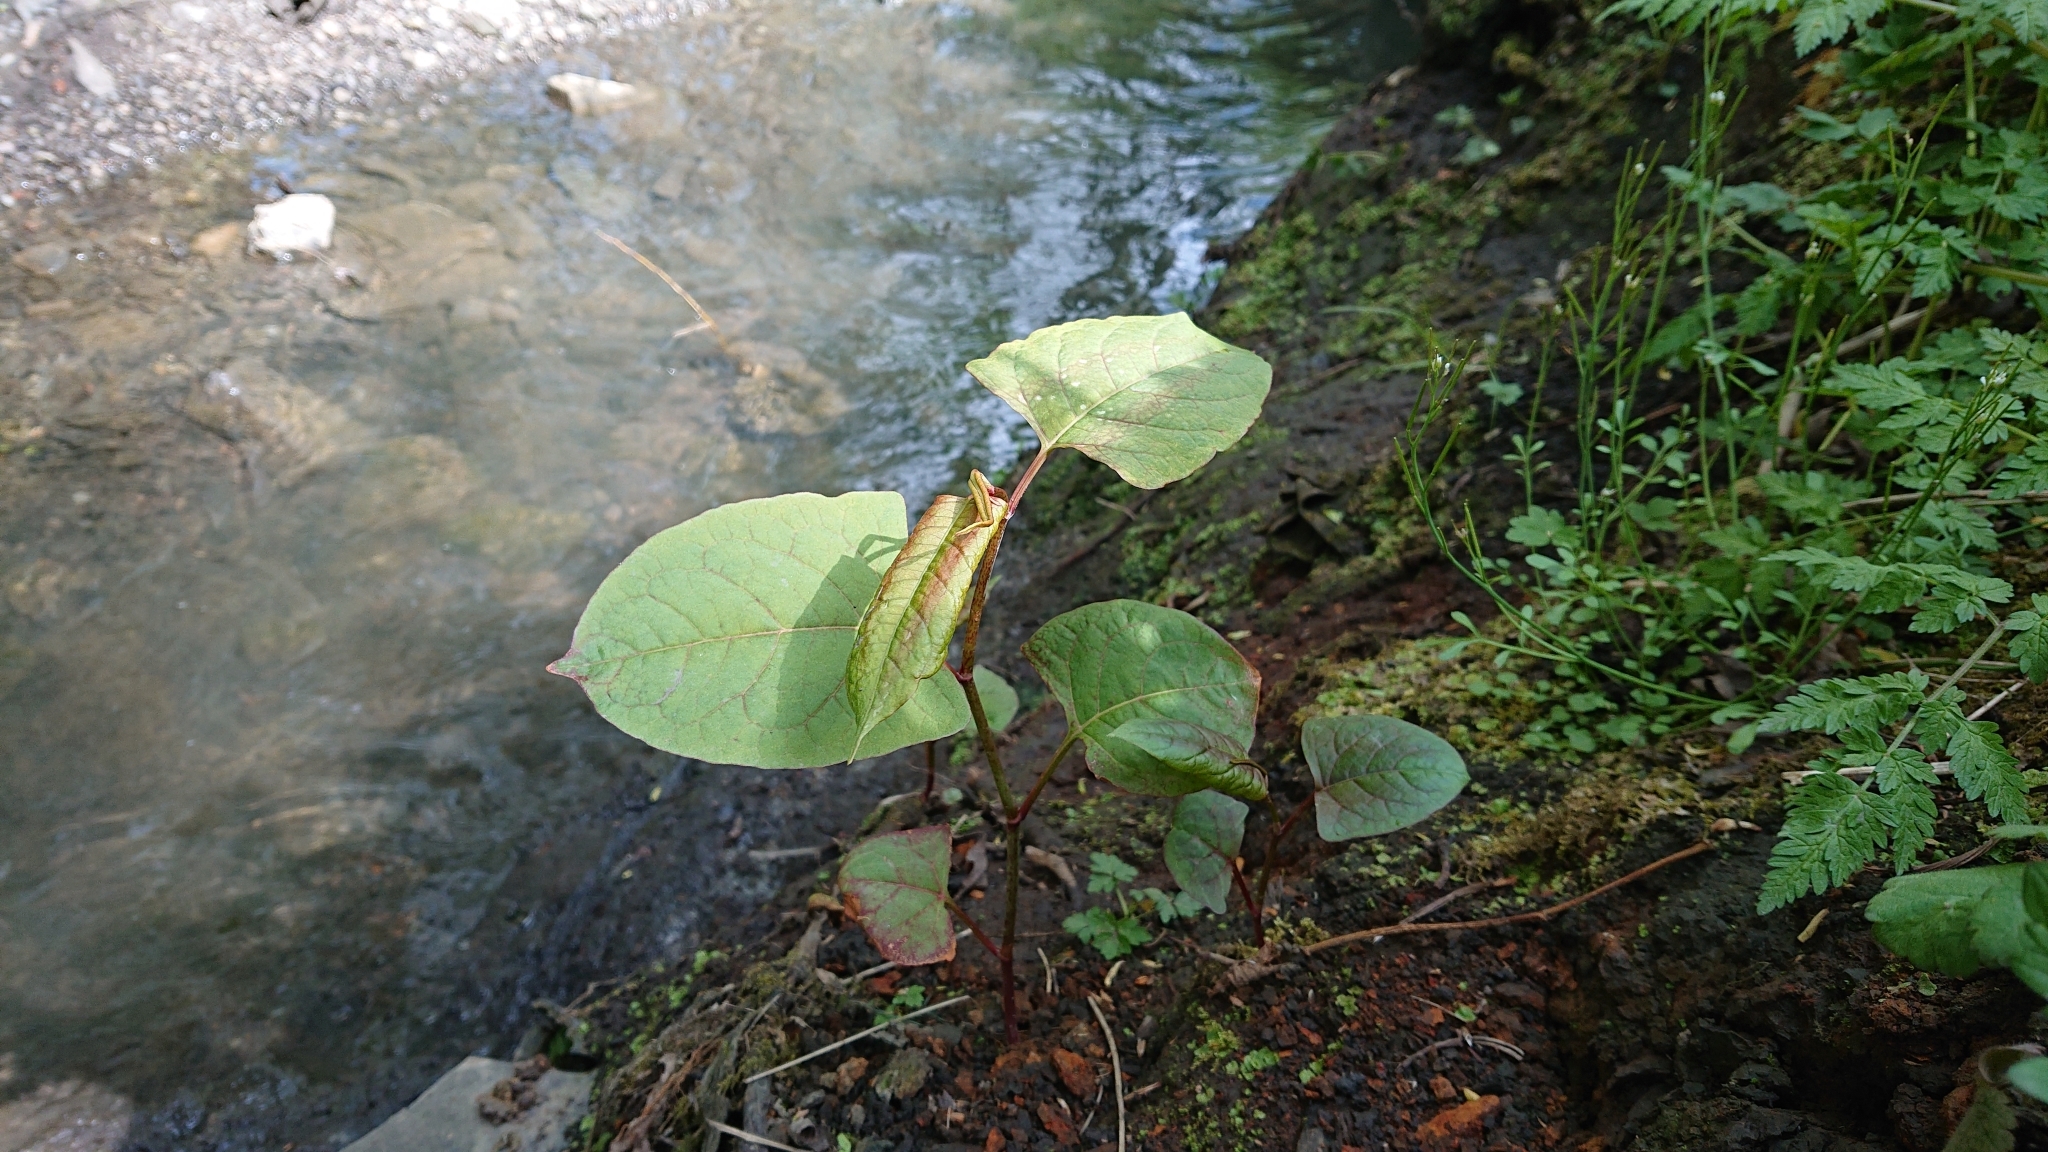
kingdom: Plantae
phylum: Tracheophyta
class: Magnoliopsida
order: Caryophyllales
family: Polygonaceae
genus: Reynoutria
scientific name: Reynoutria japonica
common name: Japanese knotweed
